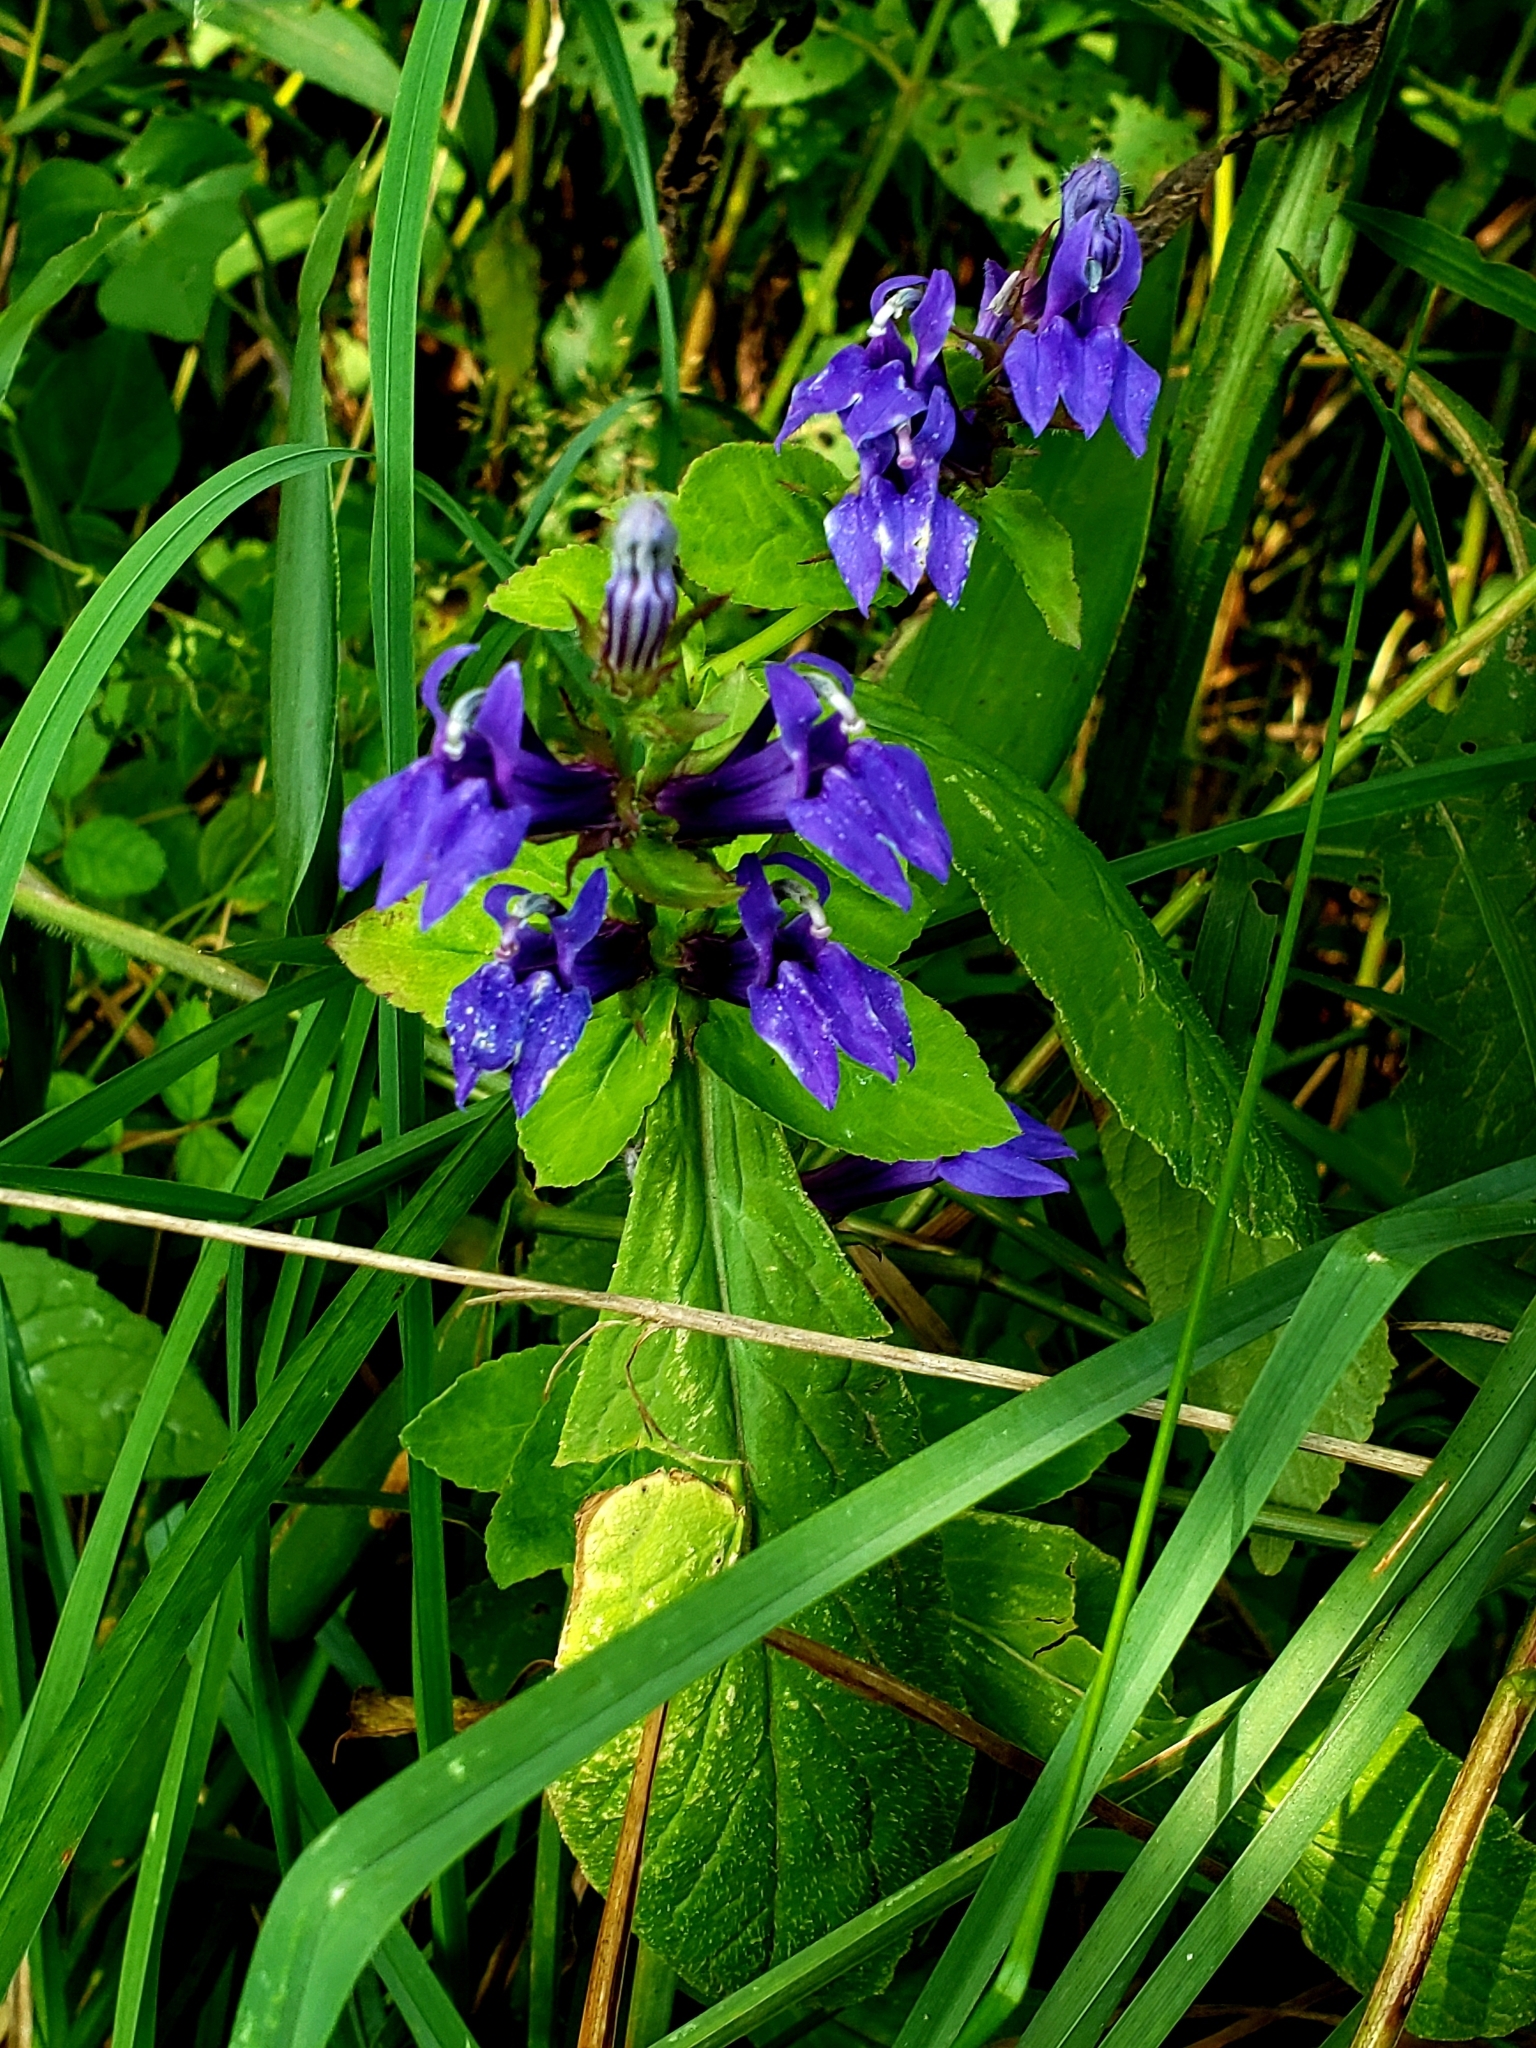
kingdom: Plantae
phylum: Tracheophyta
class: Magnoliopsida
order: Asterales
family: Campanulaceae
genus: Lobelia
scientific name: Lobelia siphilitica
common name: Great lobelia
